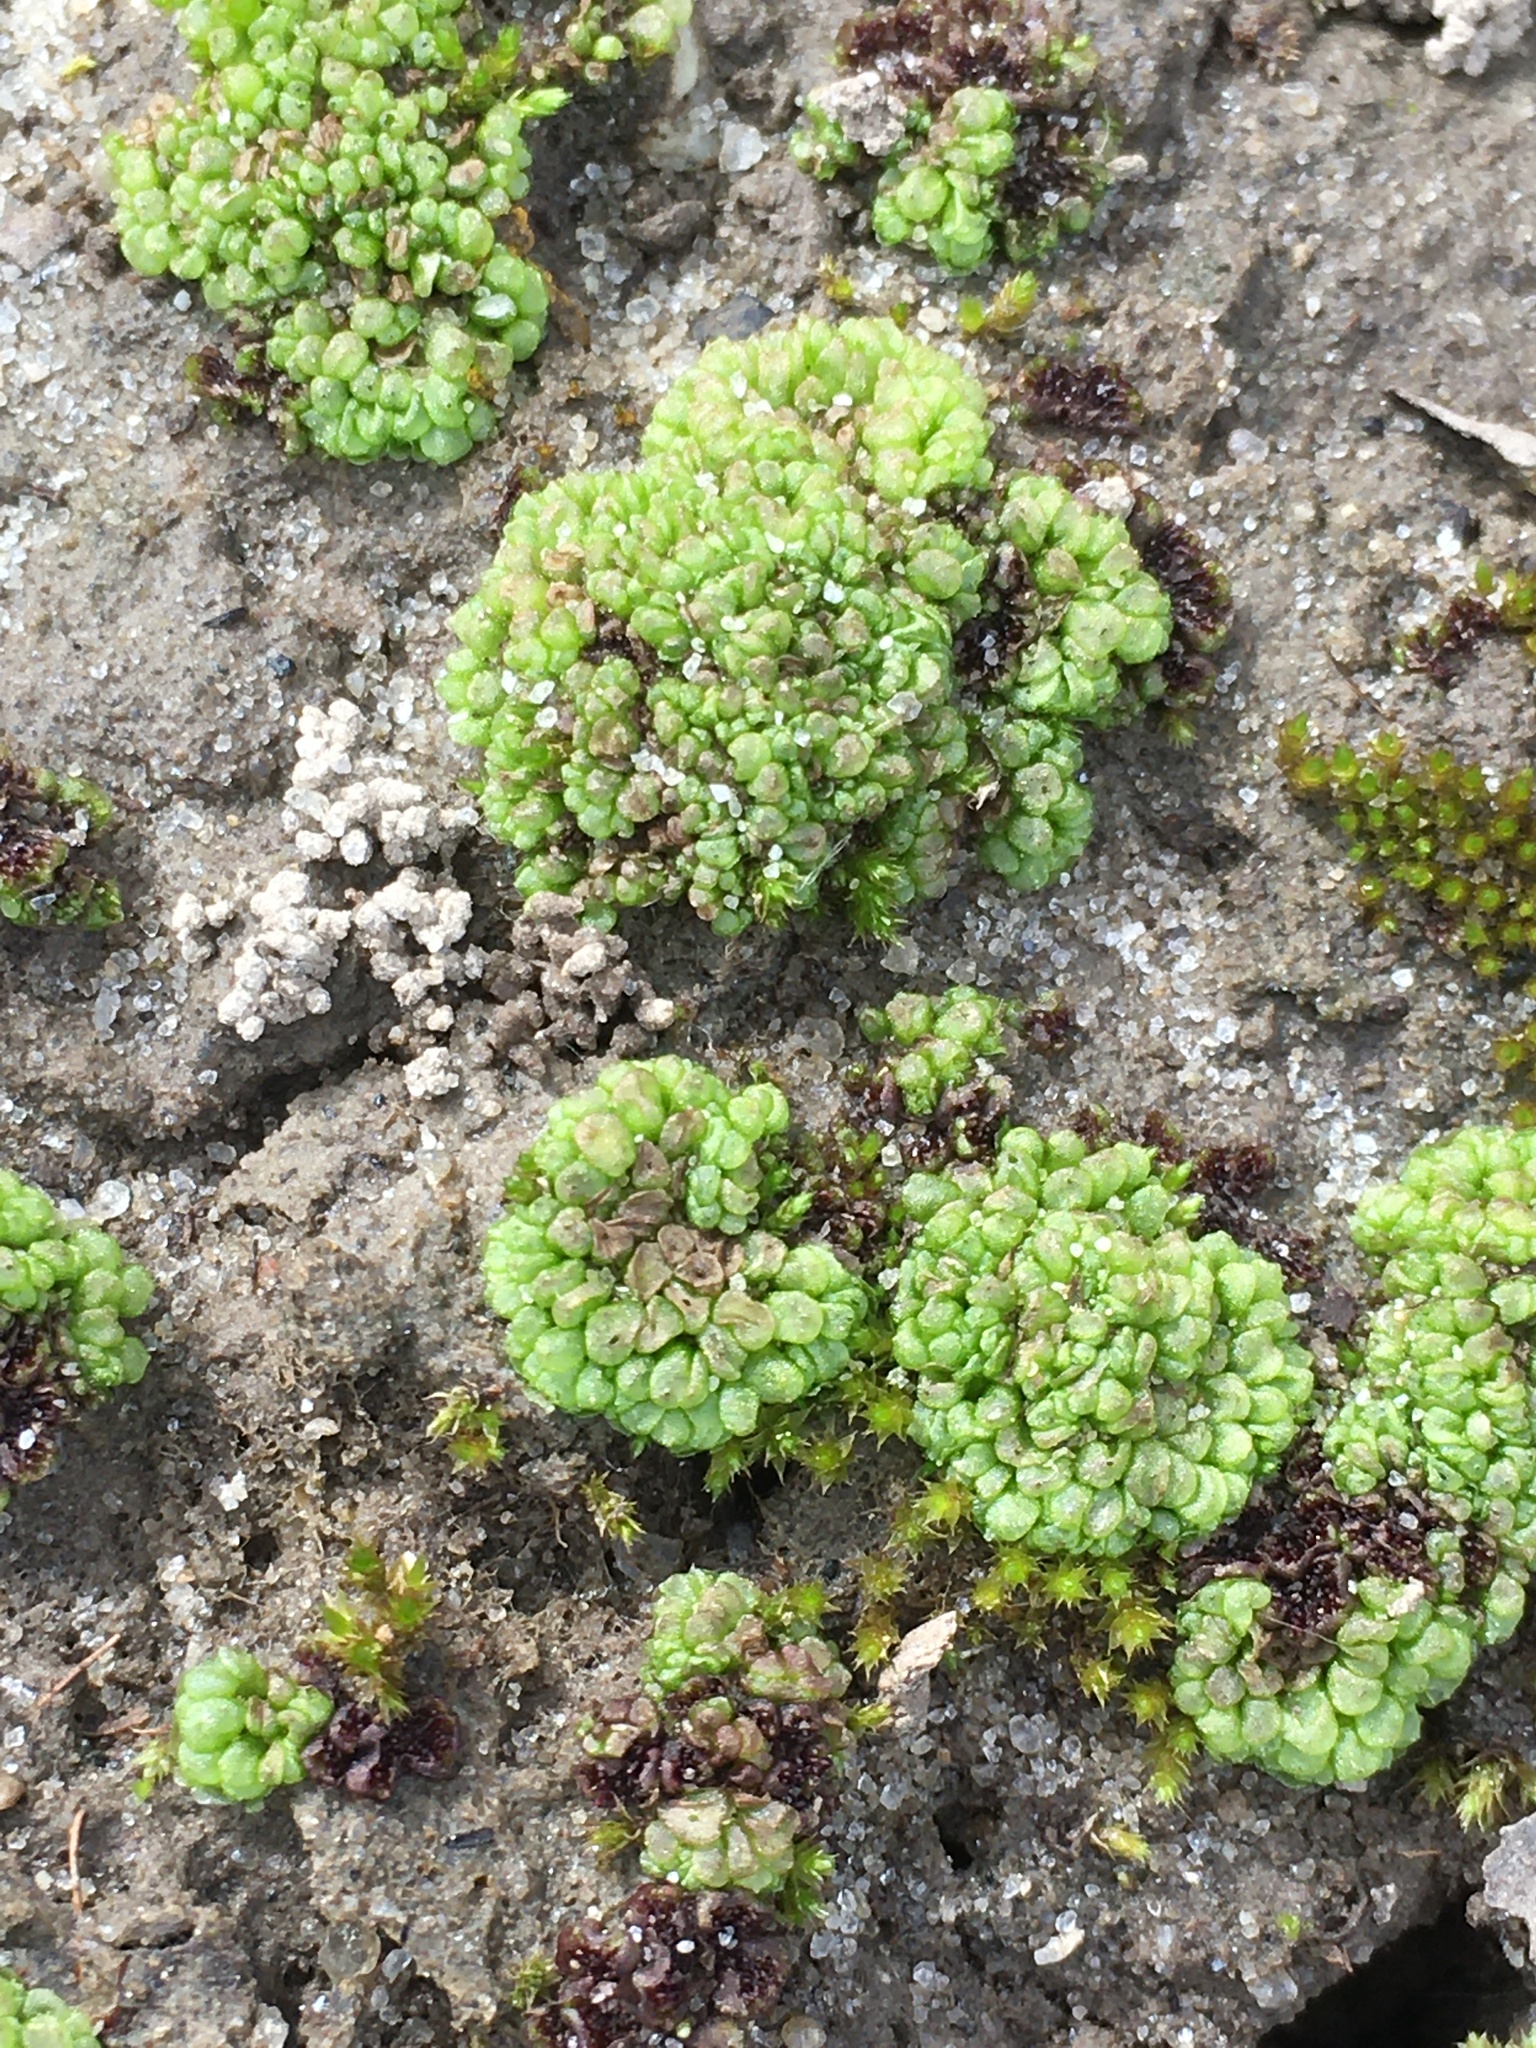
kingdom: Plantae
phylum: Marchantiophyta
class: Marchantiopsida
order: Sphaerocarpales
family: Sphaerocarpaceae
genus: Sphaerocarpos
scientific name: Sphaerocarpos texanus
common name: Texas balloonwort
